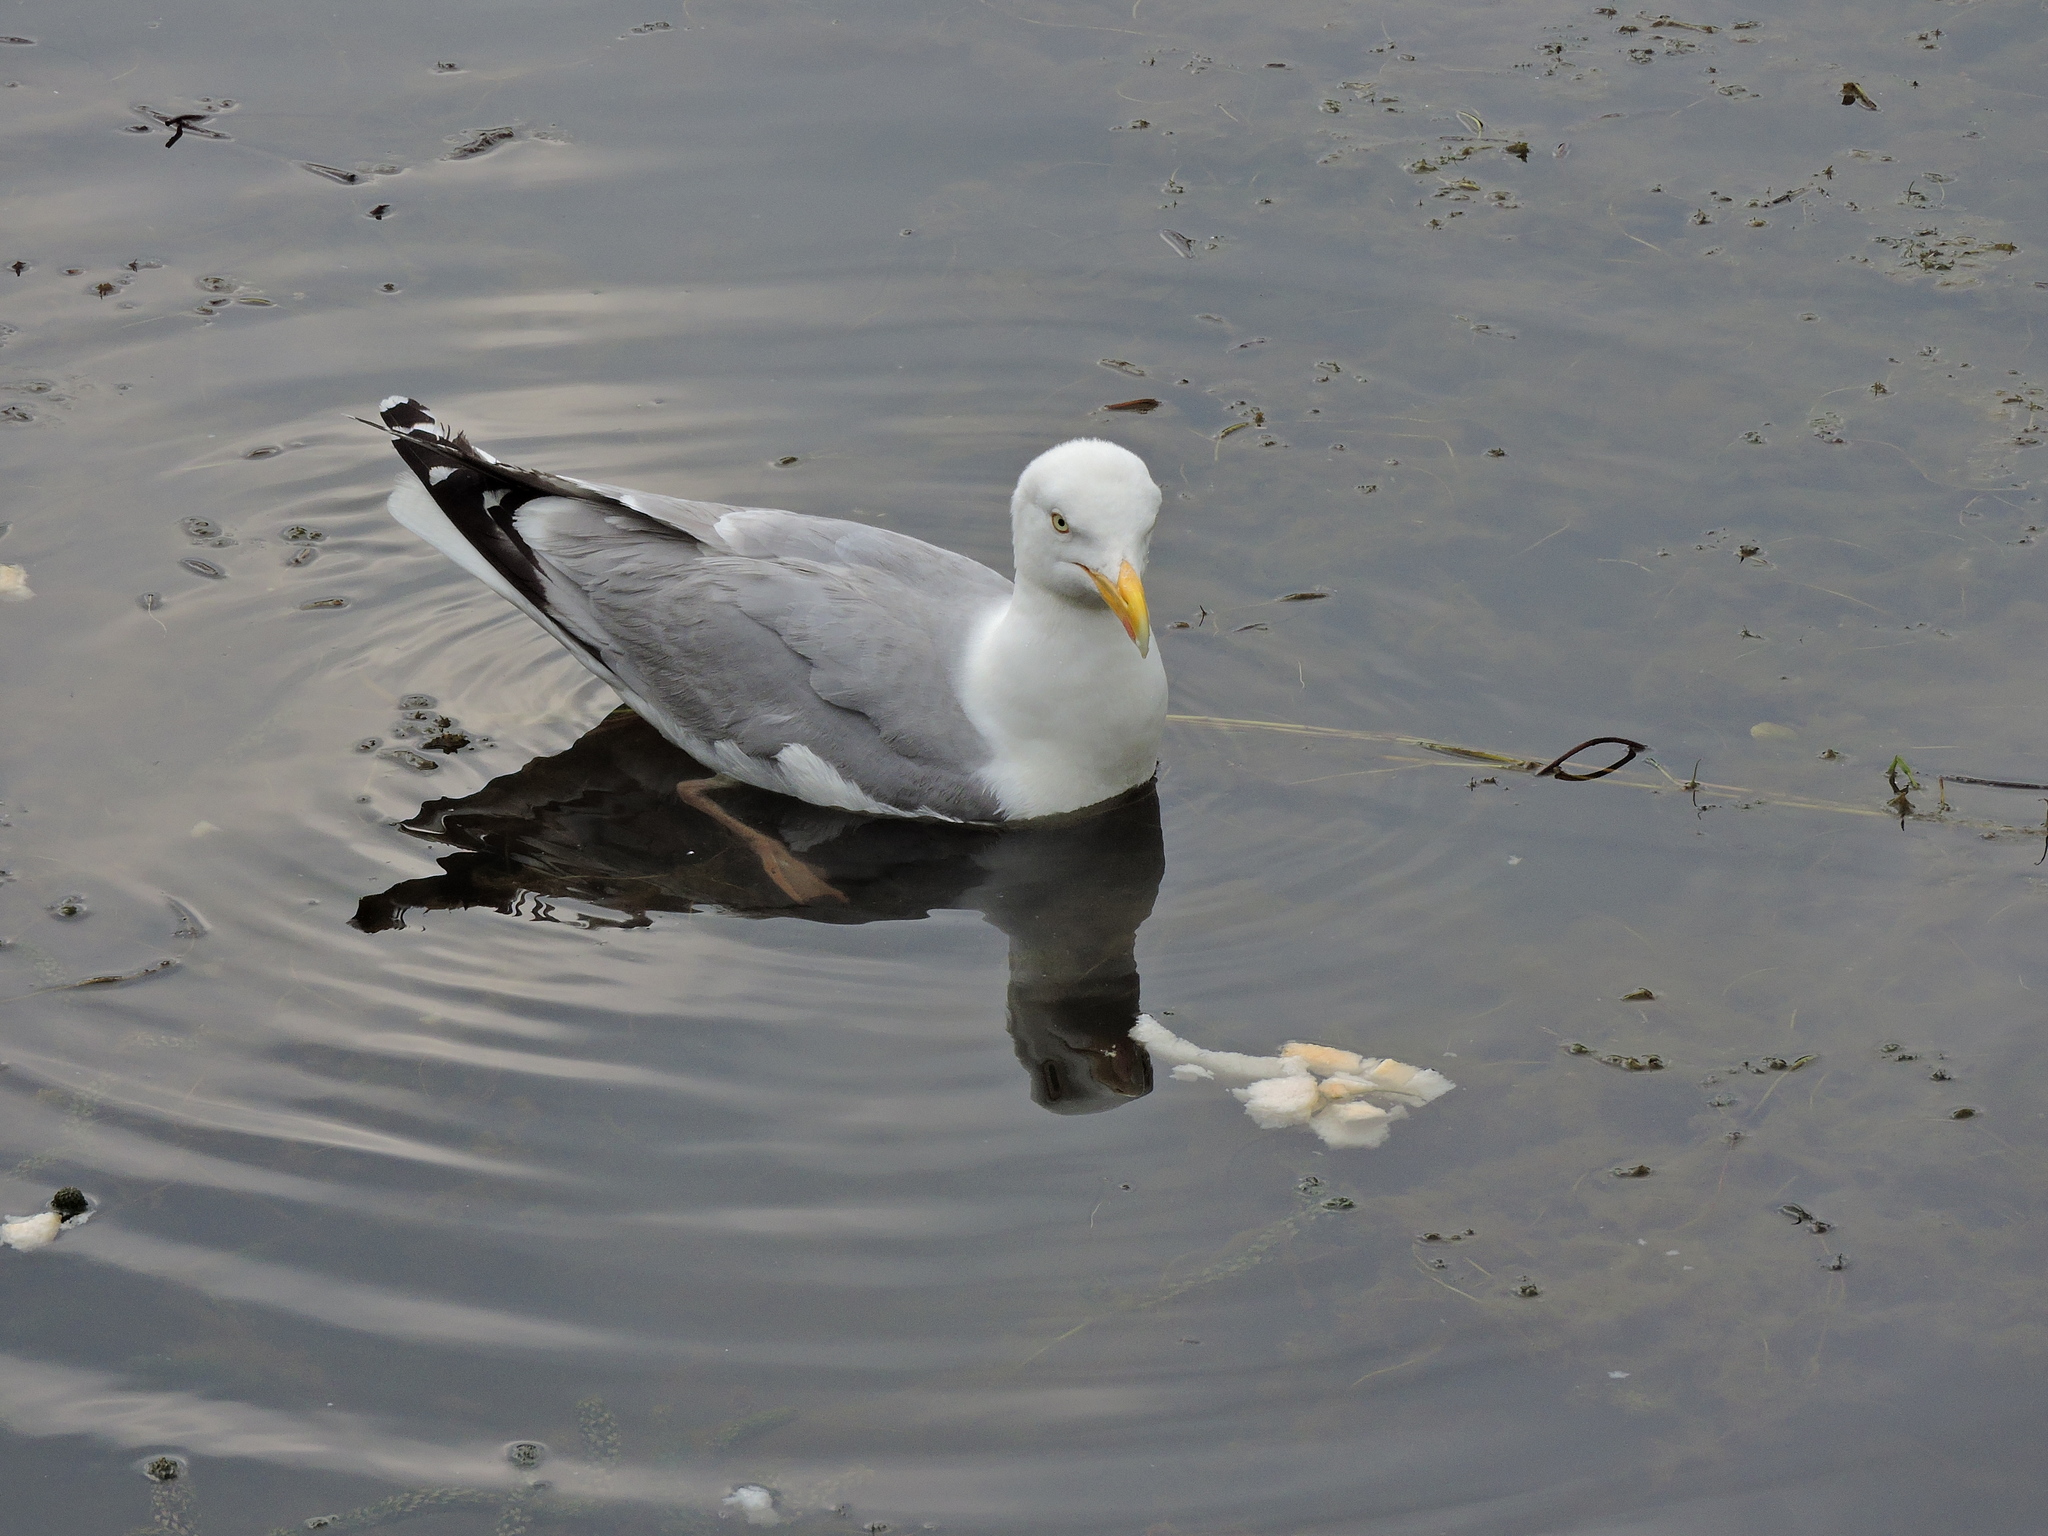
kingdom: Animalia
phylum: Chordata
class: Aves
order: Charadriiformes
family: Laridae
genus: Larus
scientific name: Larus argentatus
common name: Herring gull
